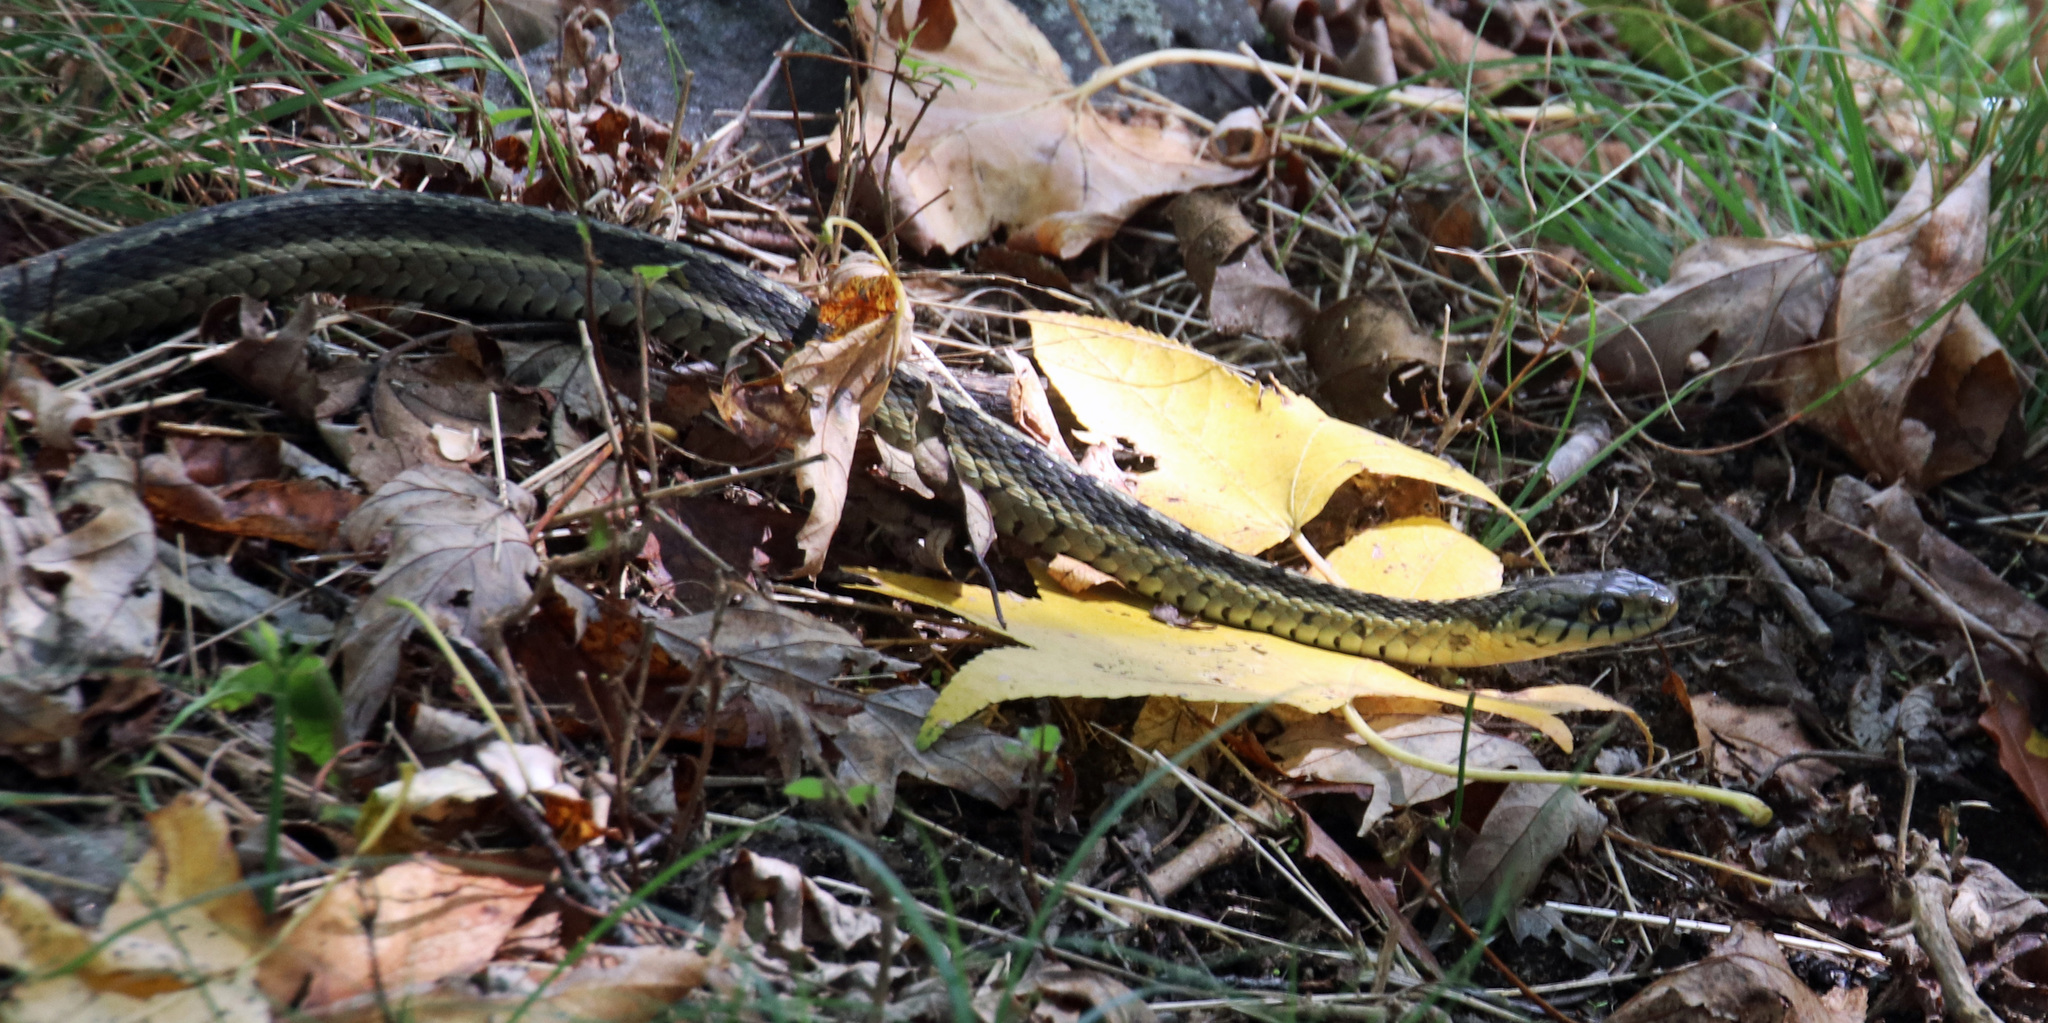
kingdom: Animalia
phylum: Chordata
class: Squamata
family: Colubridae
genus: Thamnophis
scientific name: Thamnophis sirtalis
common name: Common garter snake
